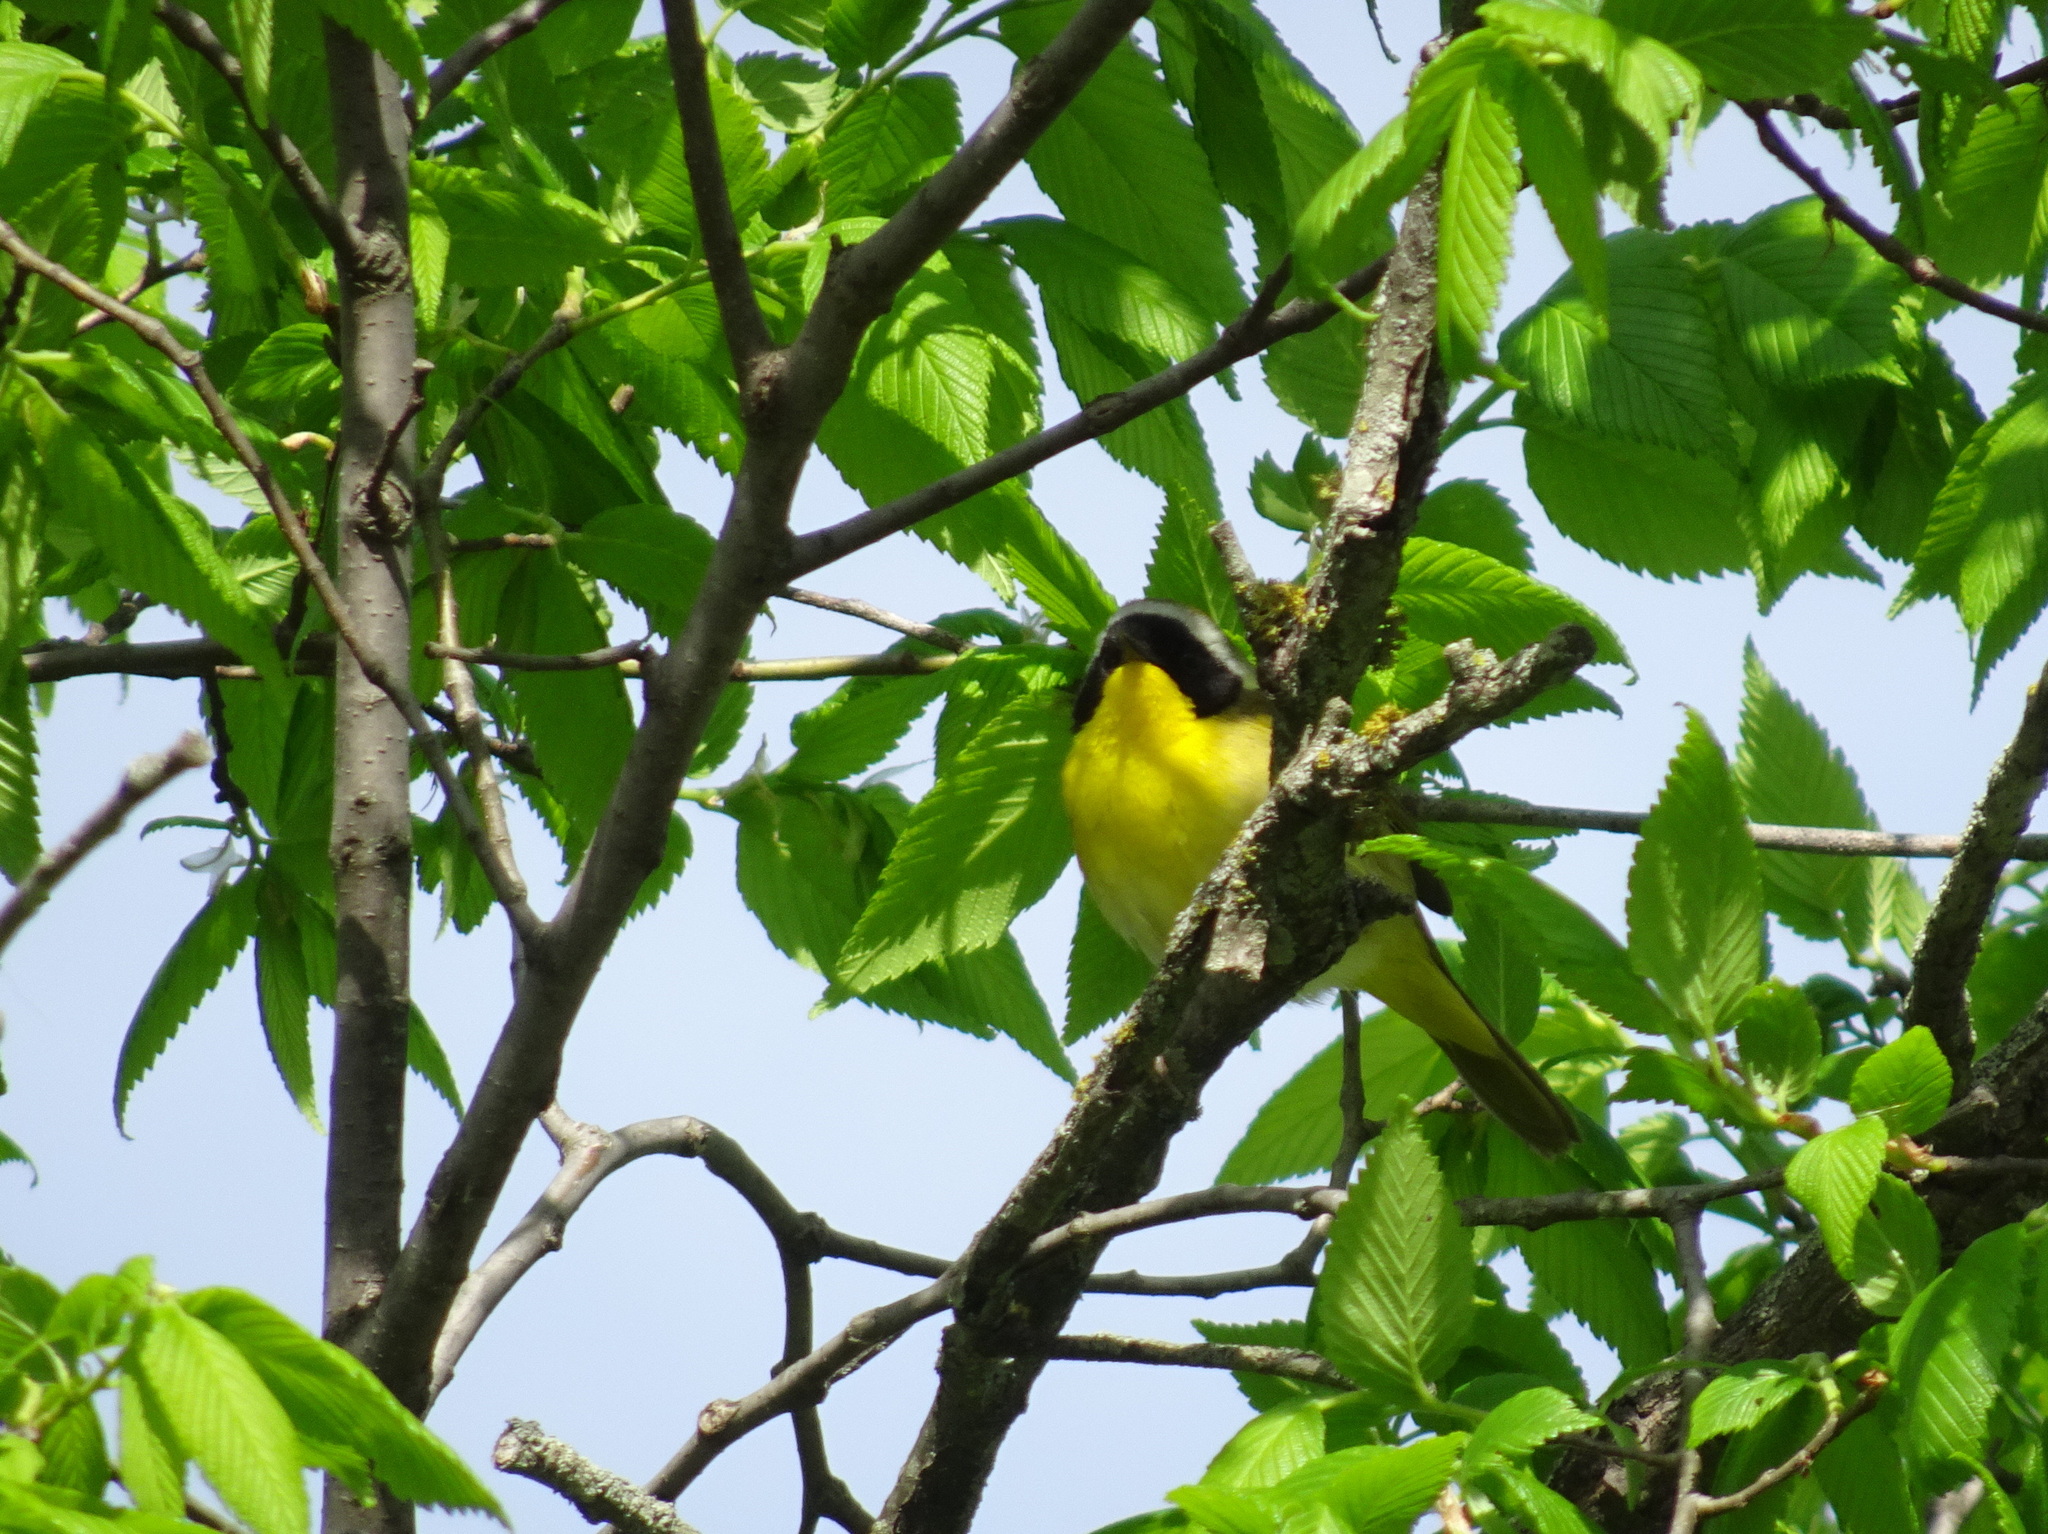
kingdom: Animalia
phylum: Chordata
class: Aves
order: Passeriformes
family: Parulidae
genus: Geothlypis
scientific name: Geothlypis trichas
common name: Common yellowthroat
